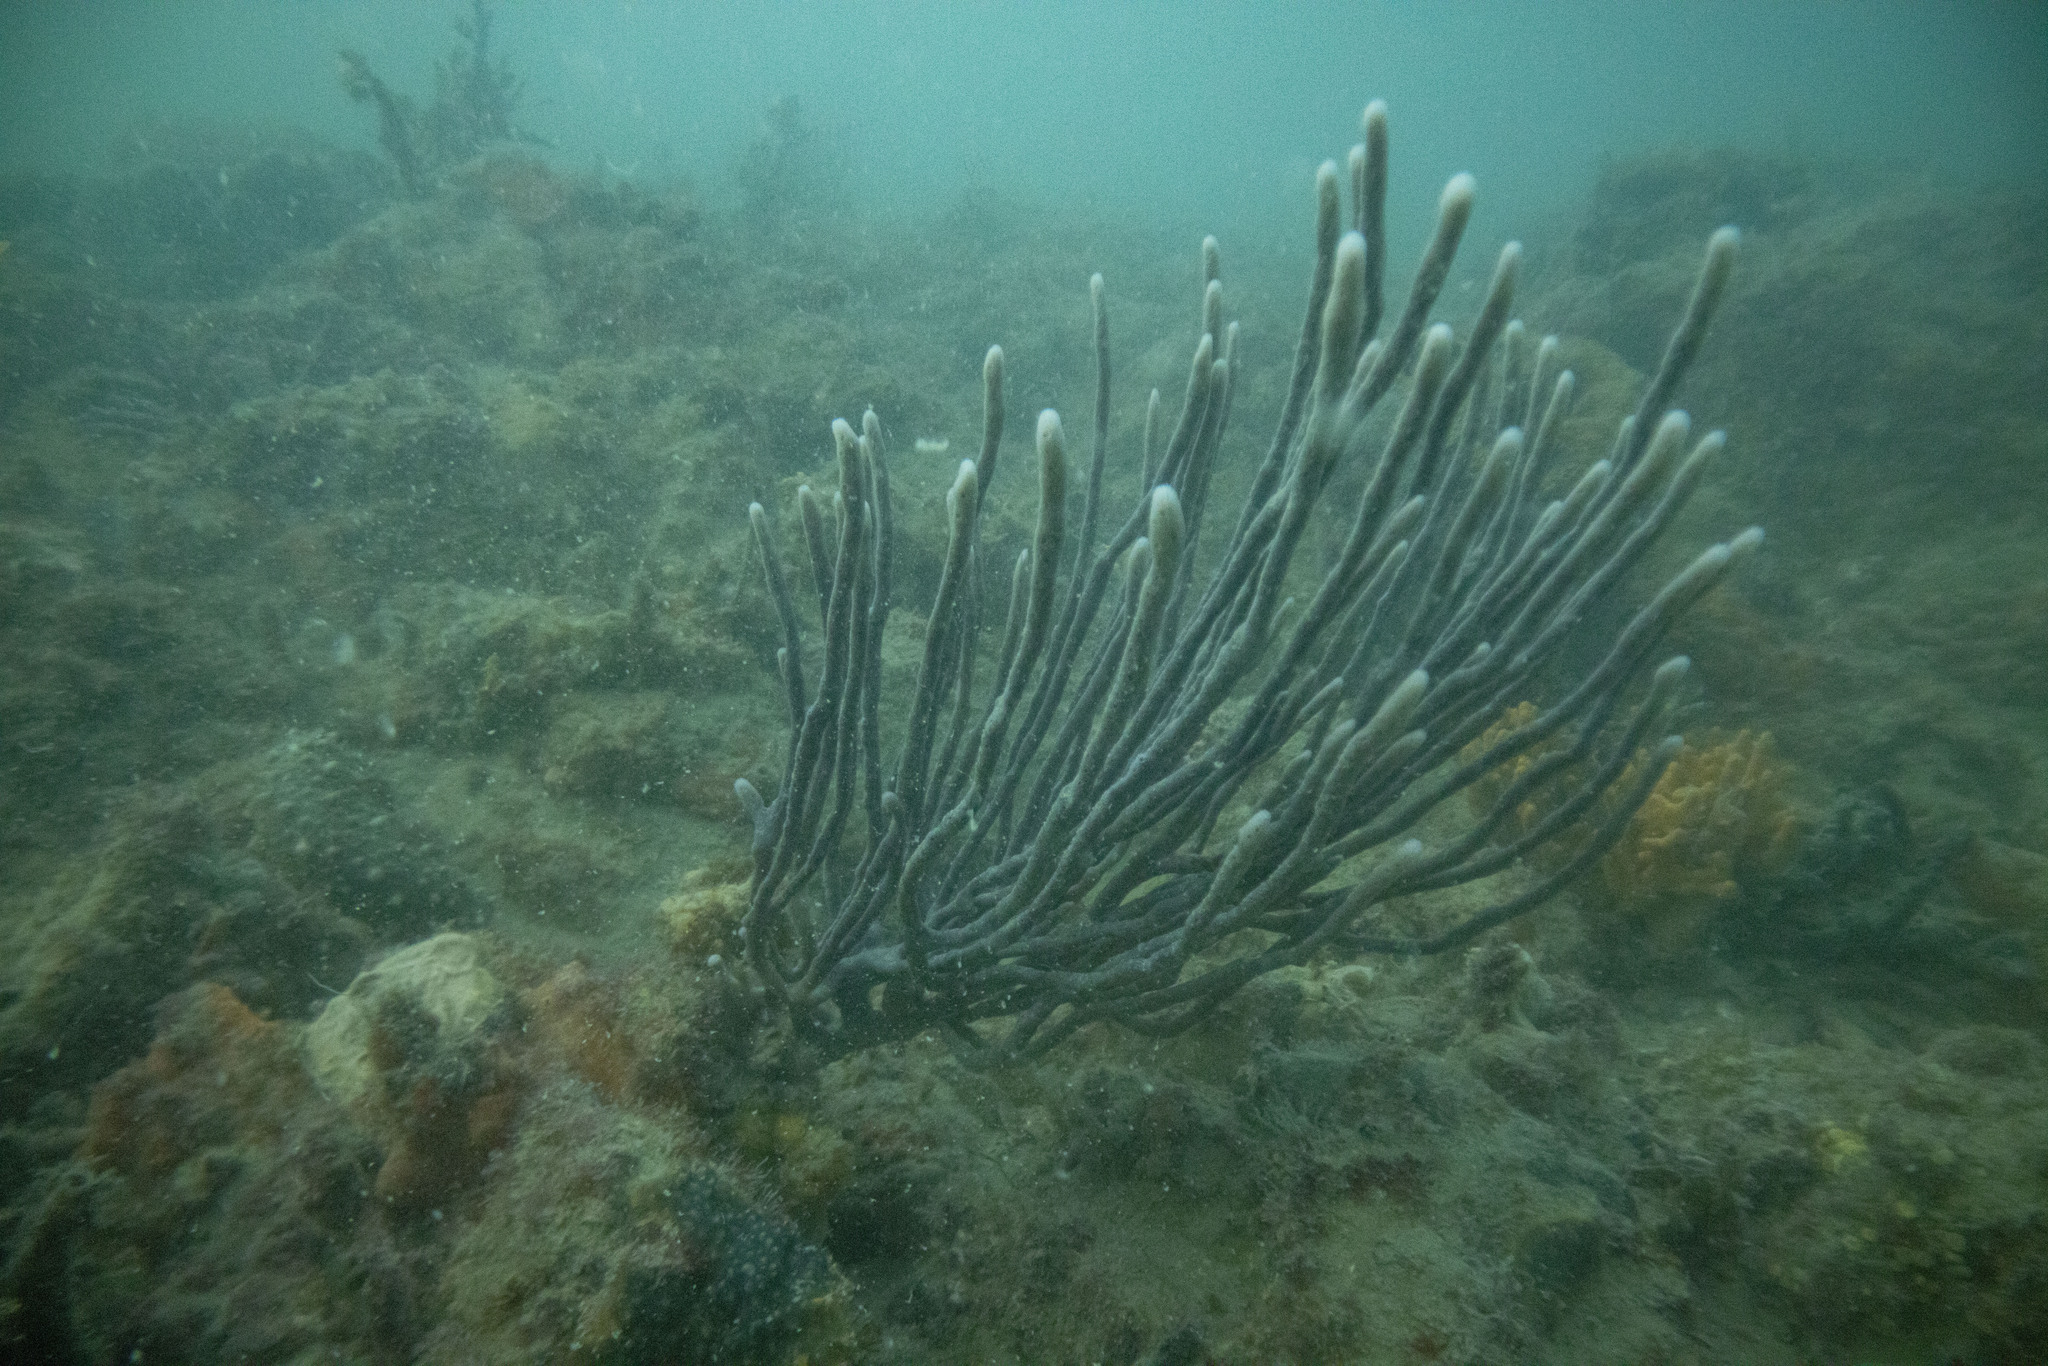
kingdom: Animalia
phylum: Porifera
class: Demospongiae
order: Haplosclerida
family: Callyspongiidae
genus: Callyspongia
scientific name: Callyspongia nuda
